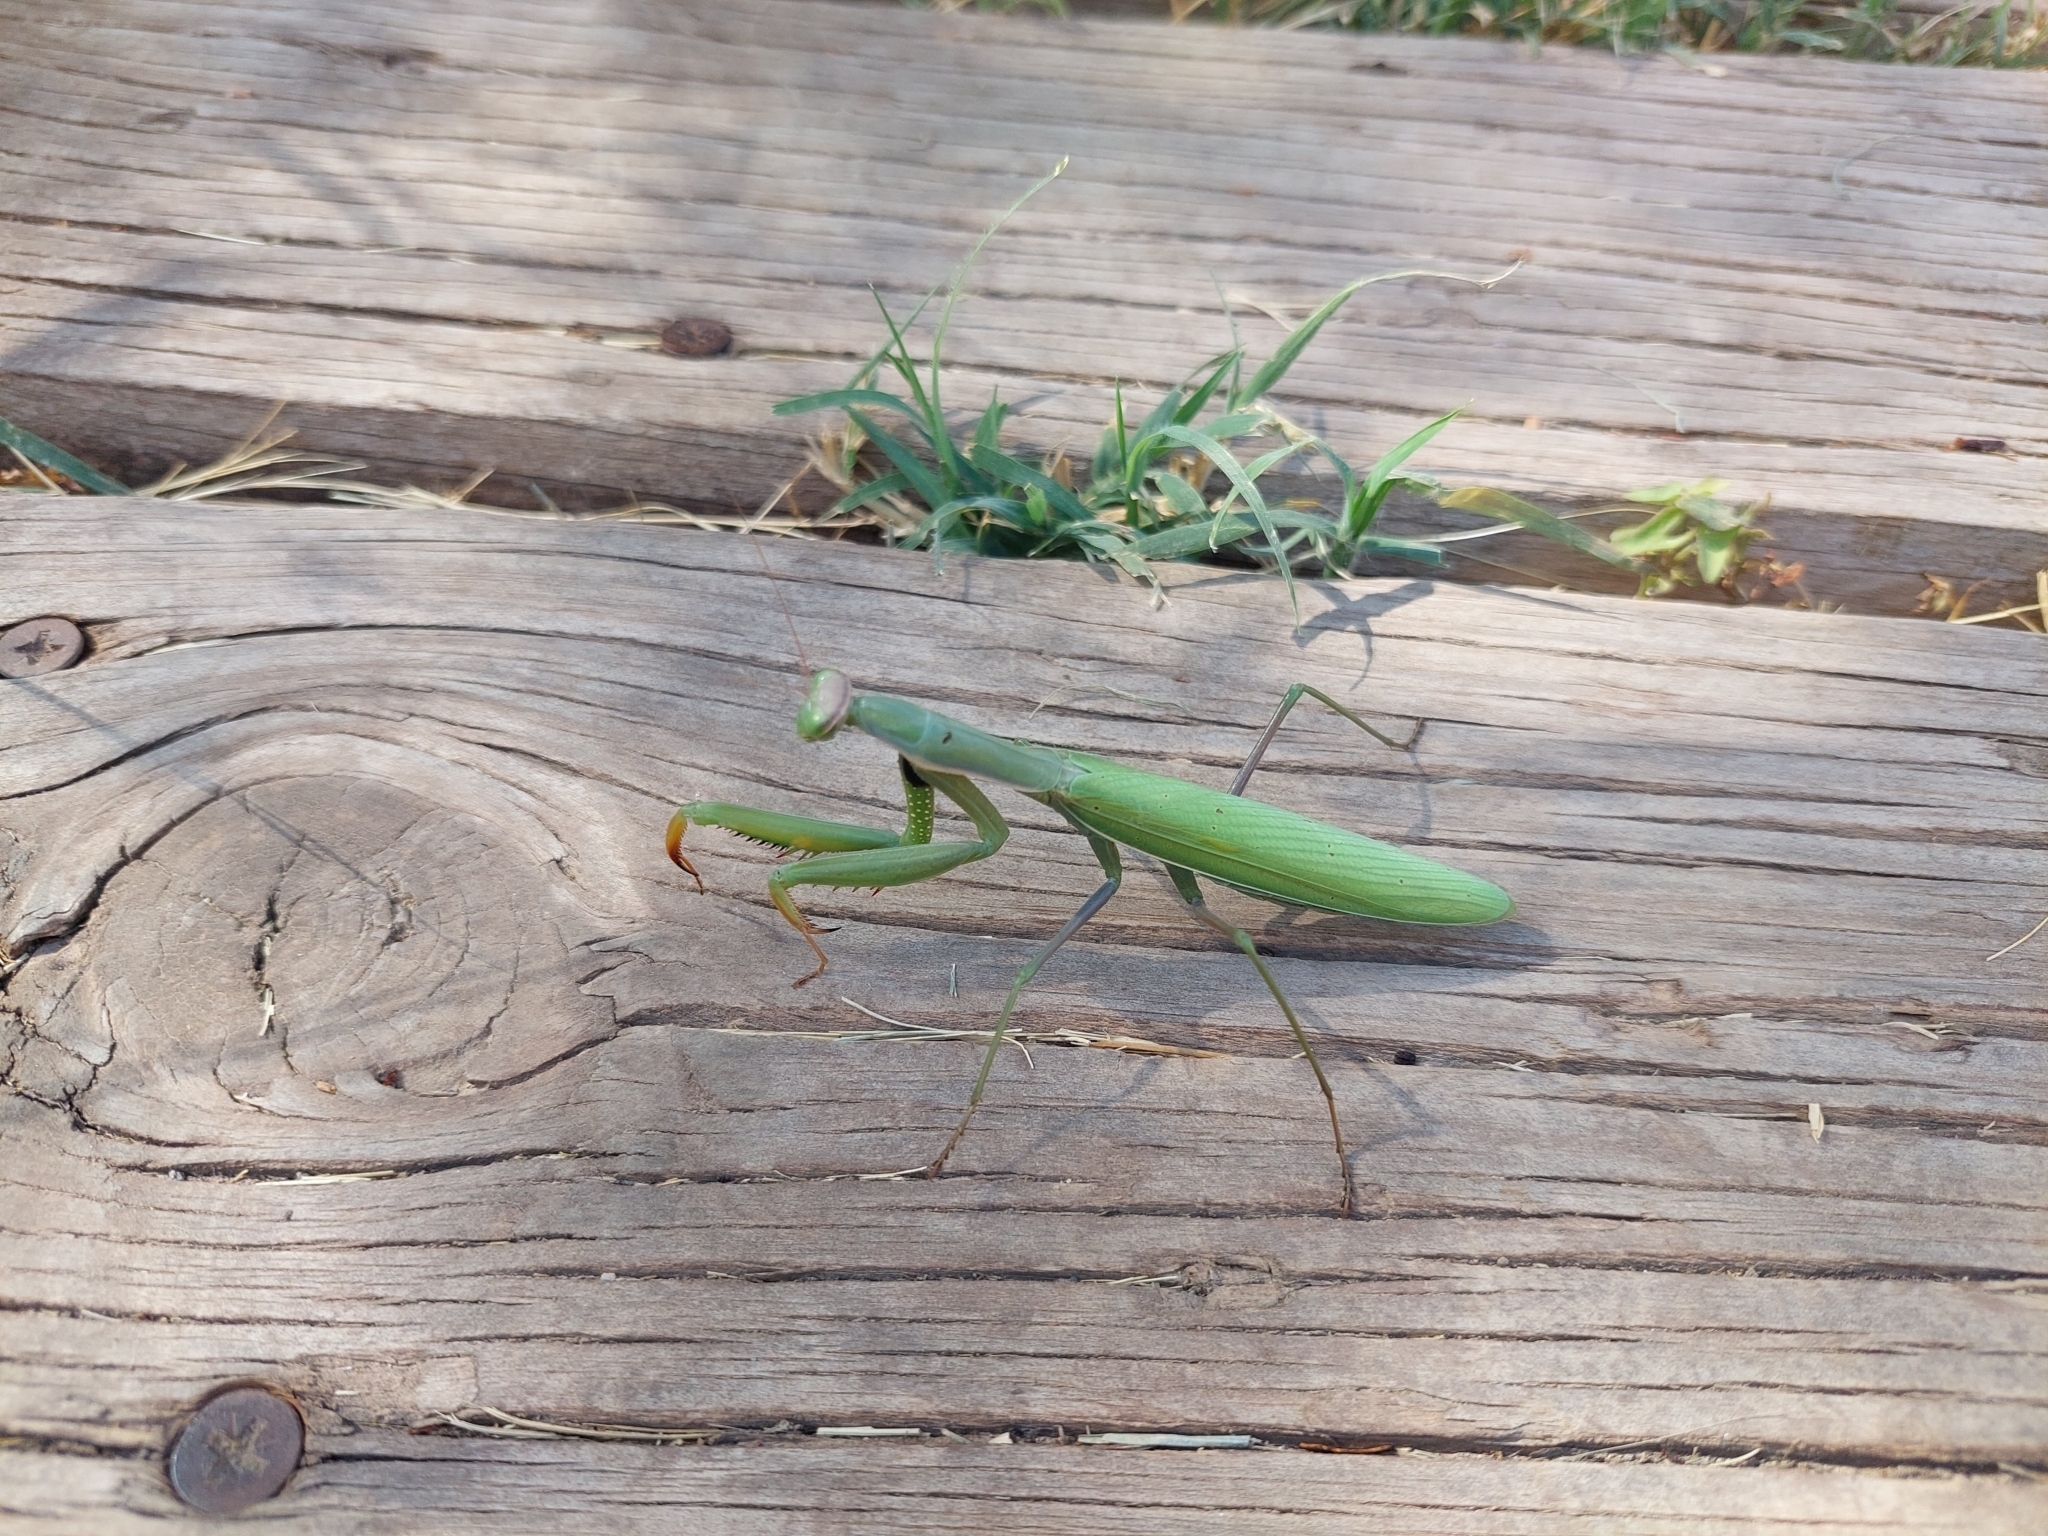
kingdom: Animalia
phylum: Arthropoda
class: Insecta
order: Mantodea
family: Mantidae
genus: Mantis
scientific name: Mantis religiosa
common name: Praying mantis
